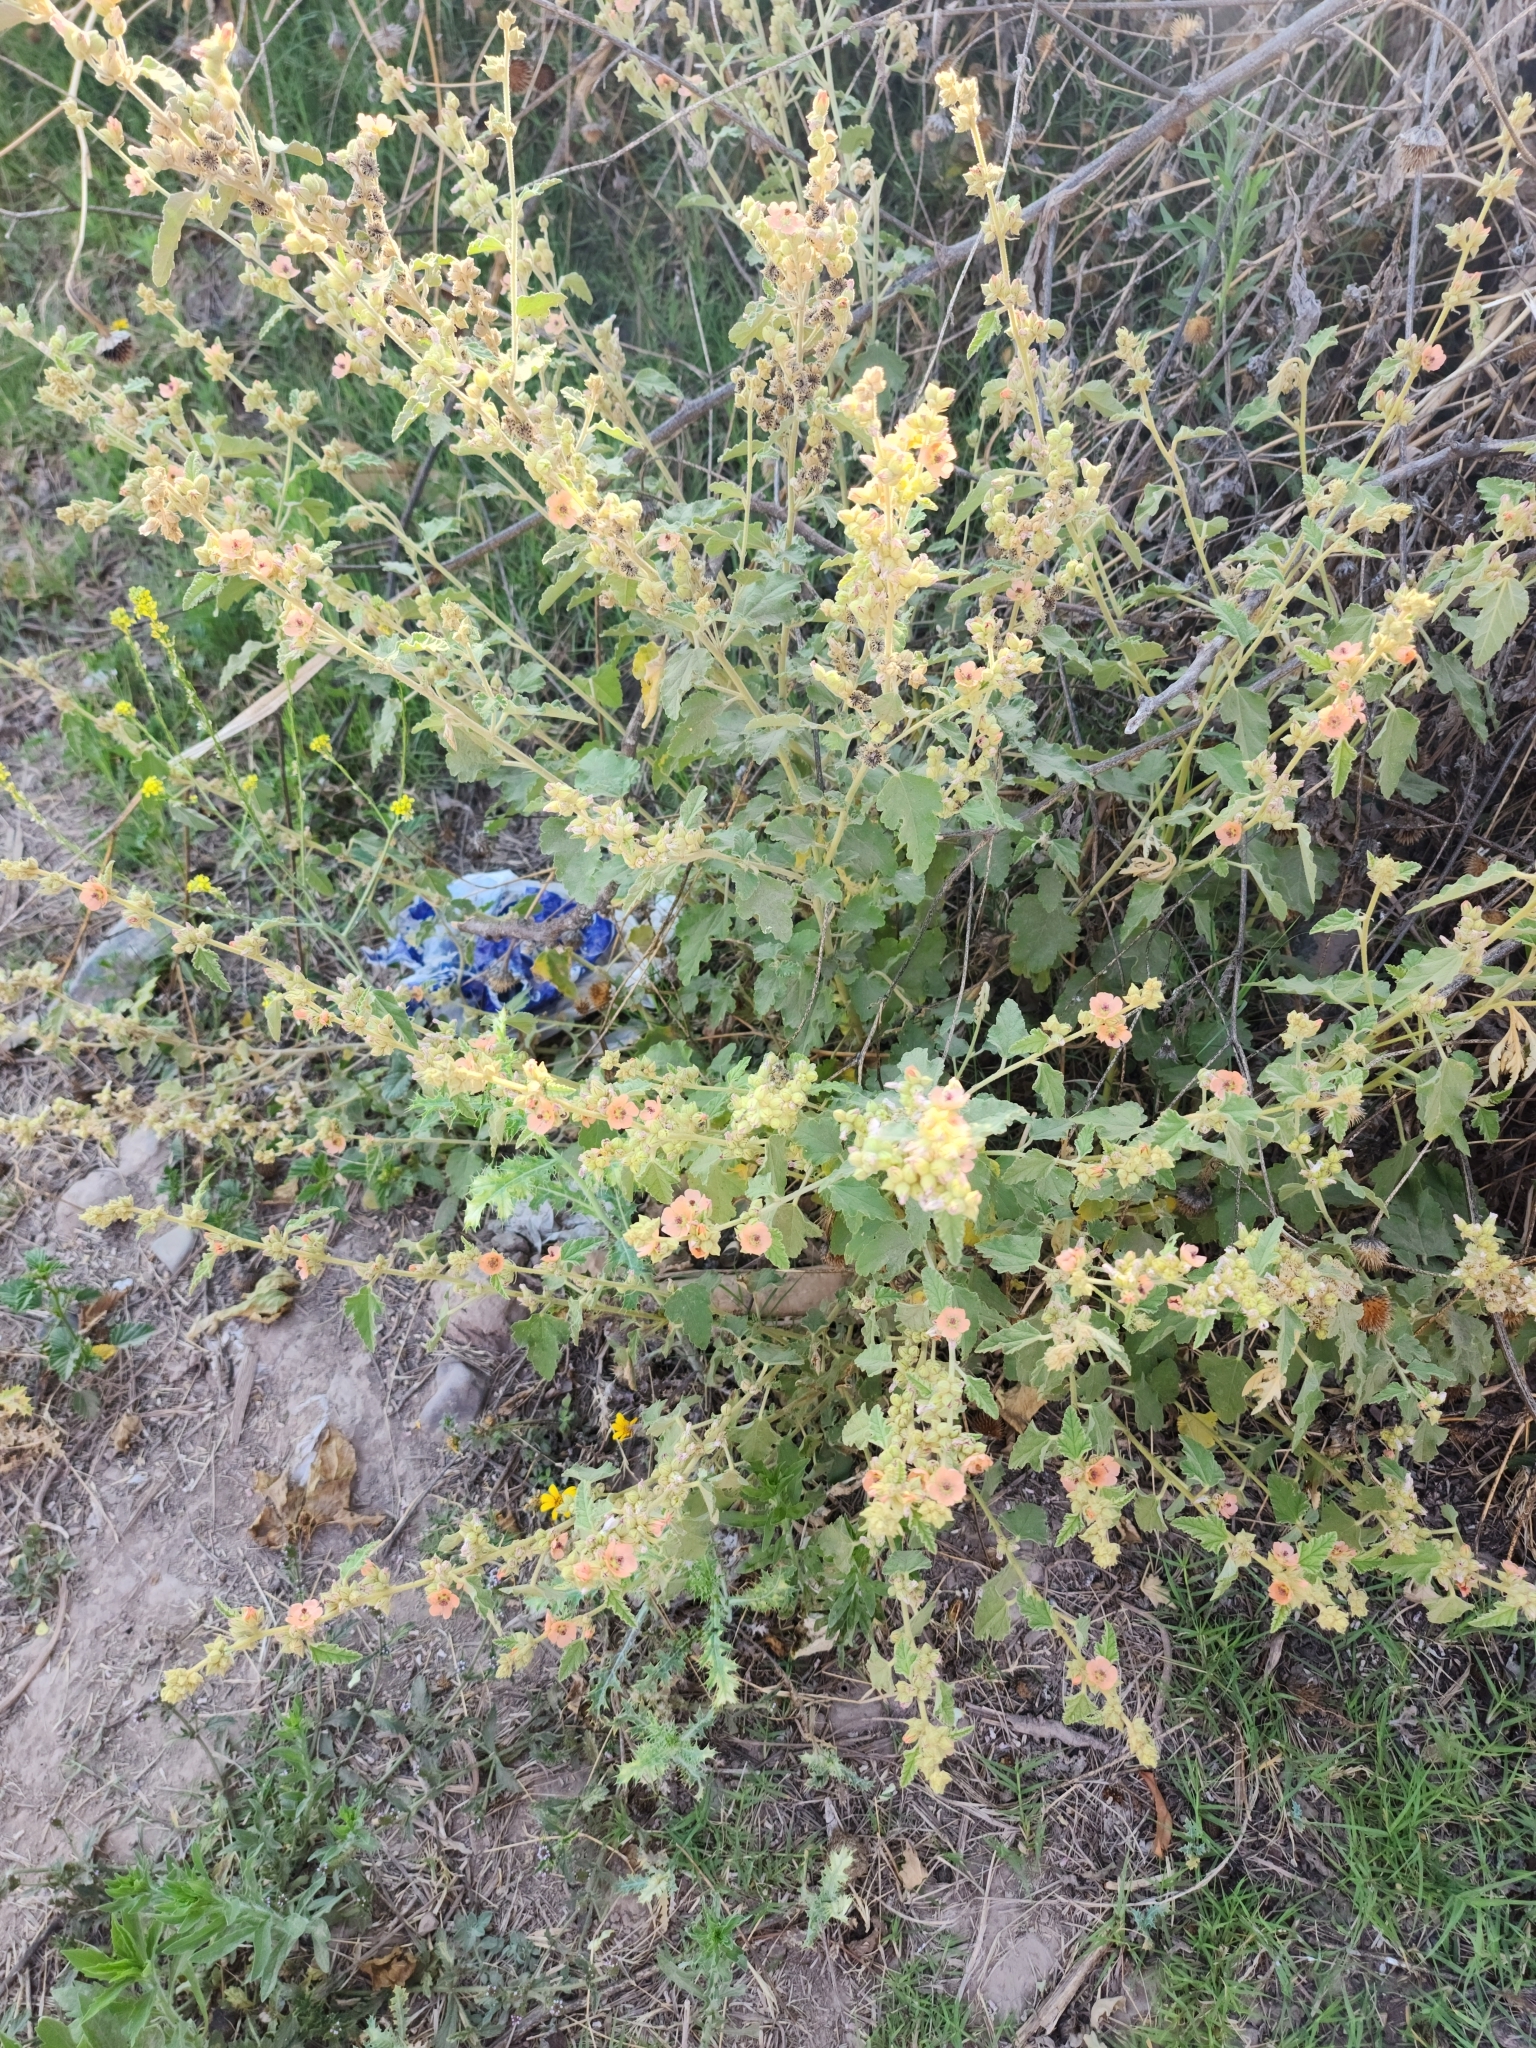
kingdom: Plantae
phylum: Tracheophyta
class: Magnoliopsida
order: Malvales
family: Malvaceae
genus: Sphaeralcea
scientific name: Sphaeralcea bonariensis
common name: Latin globemallow
